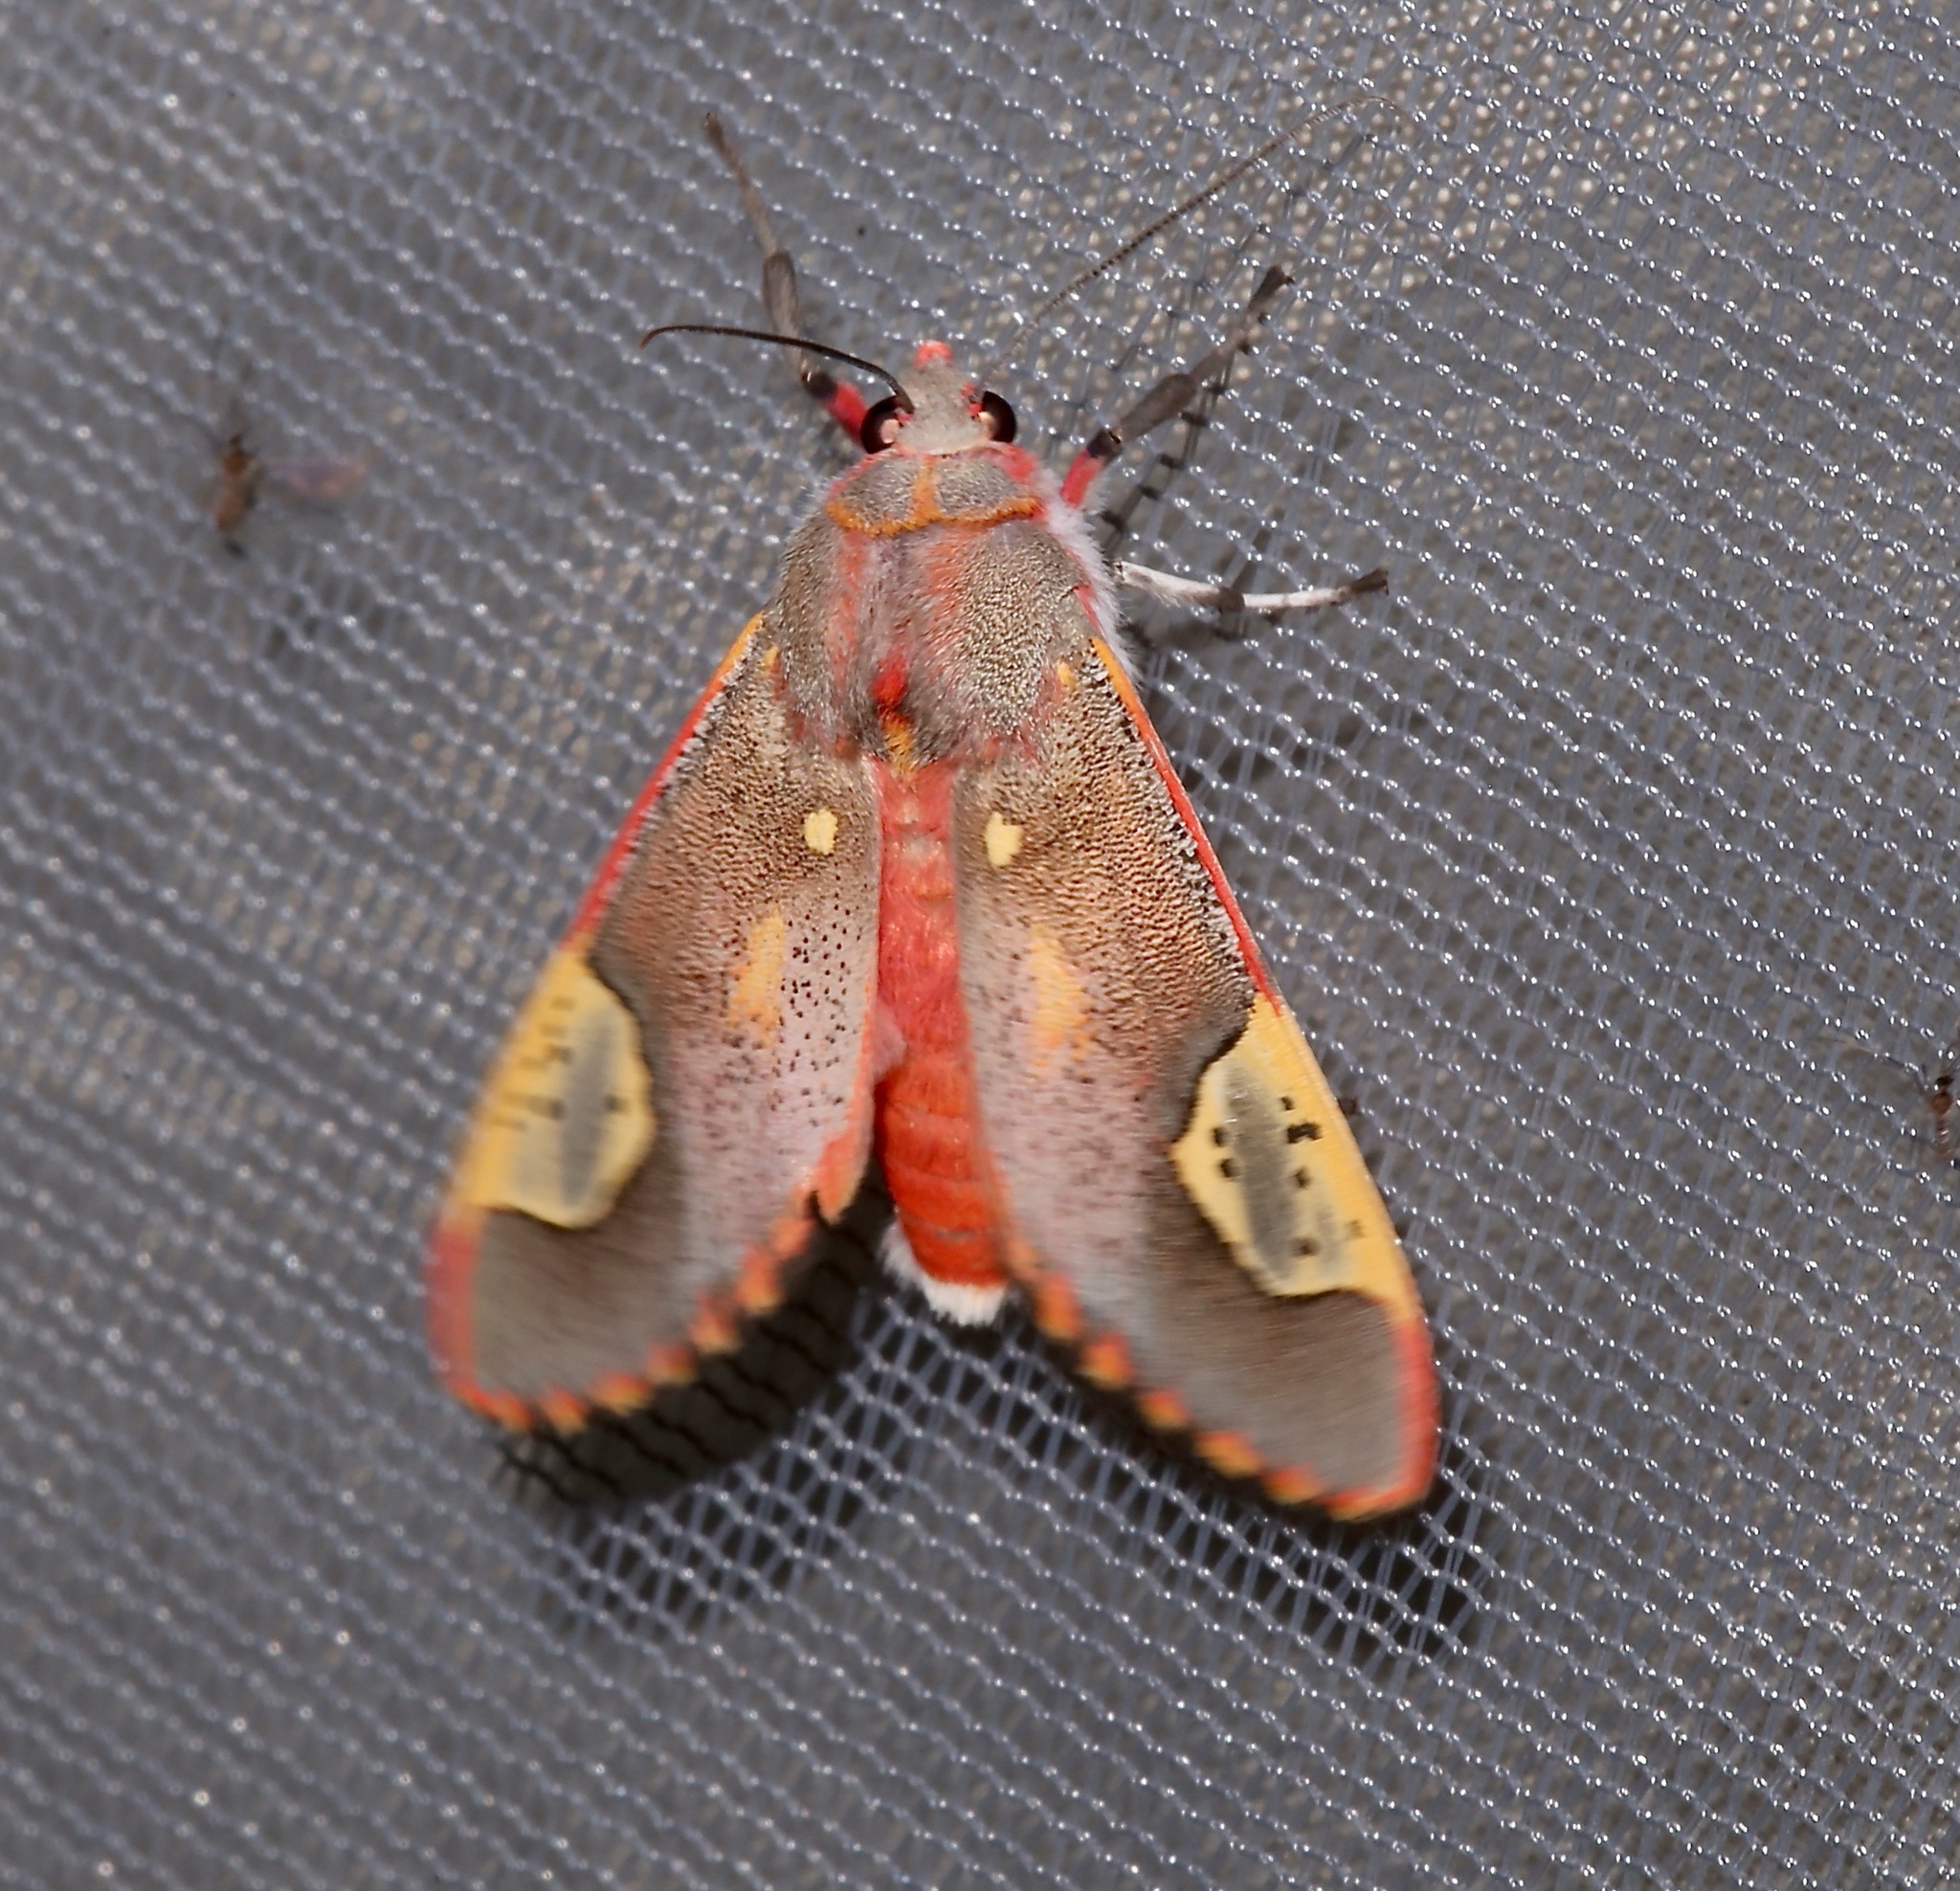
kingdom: Animalia
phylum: Arthropoda
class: Insecta
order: Lepidoptera
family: Erebidae
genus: Bertholdia
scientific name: Bertholdia trigona
